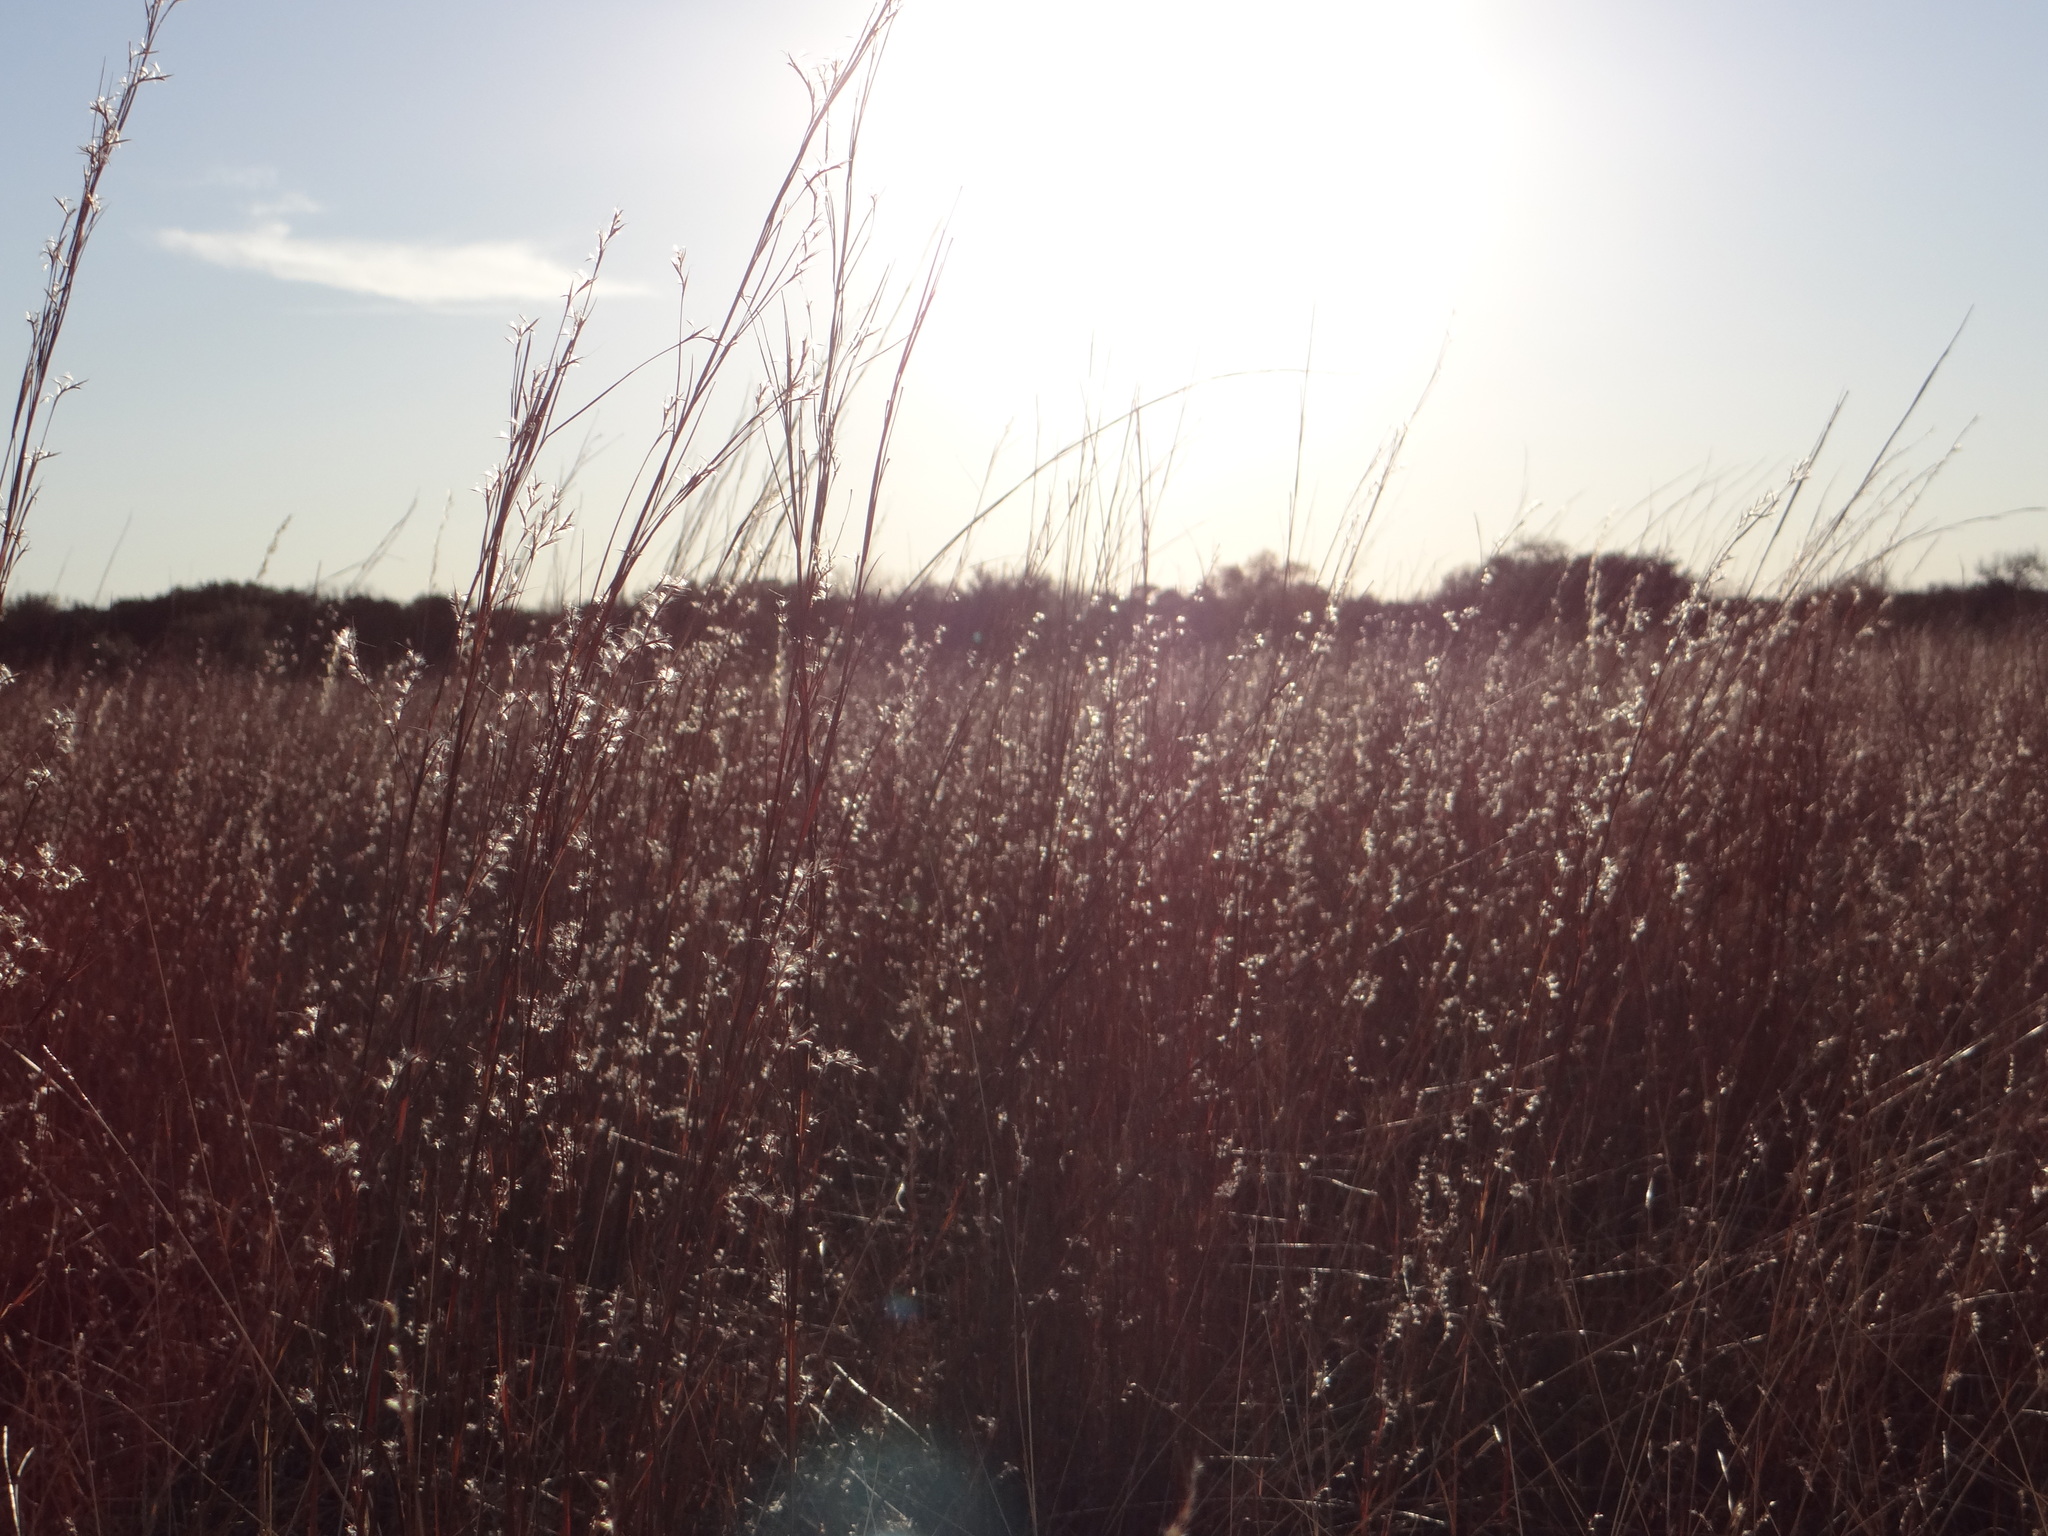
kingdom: Plantae
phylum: Tracheophyta
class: Liliopsida
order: Poales
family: Poaceae
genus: Schizachyrium
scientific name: Schizachyrium scoparium
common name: Little bluestem
